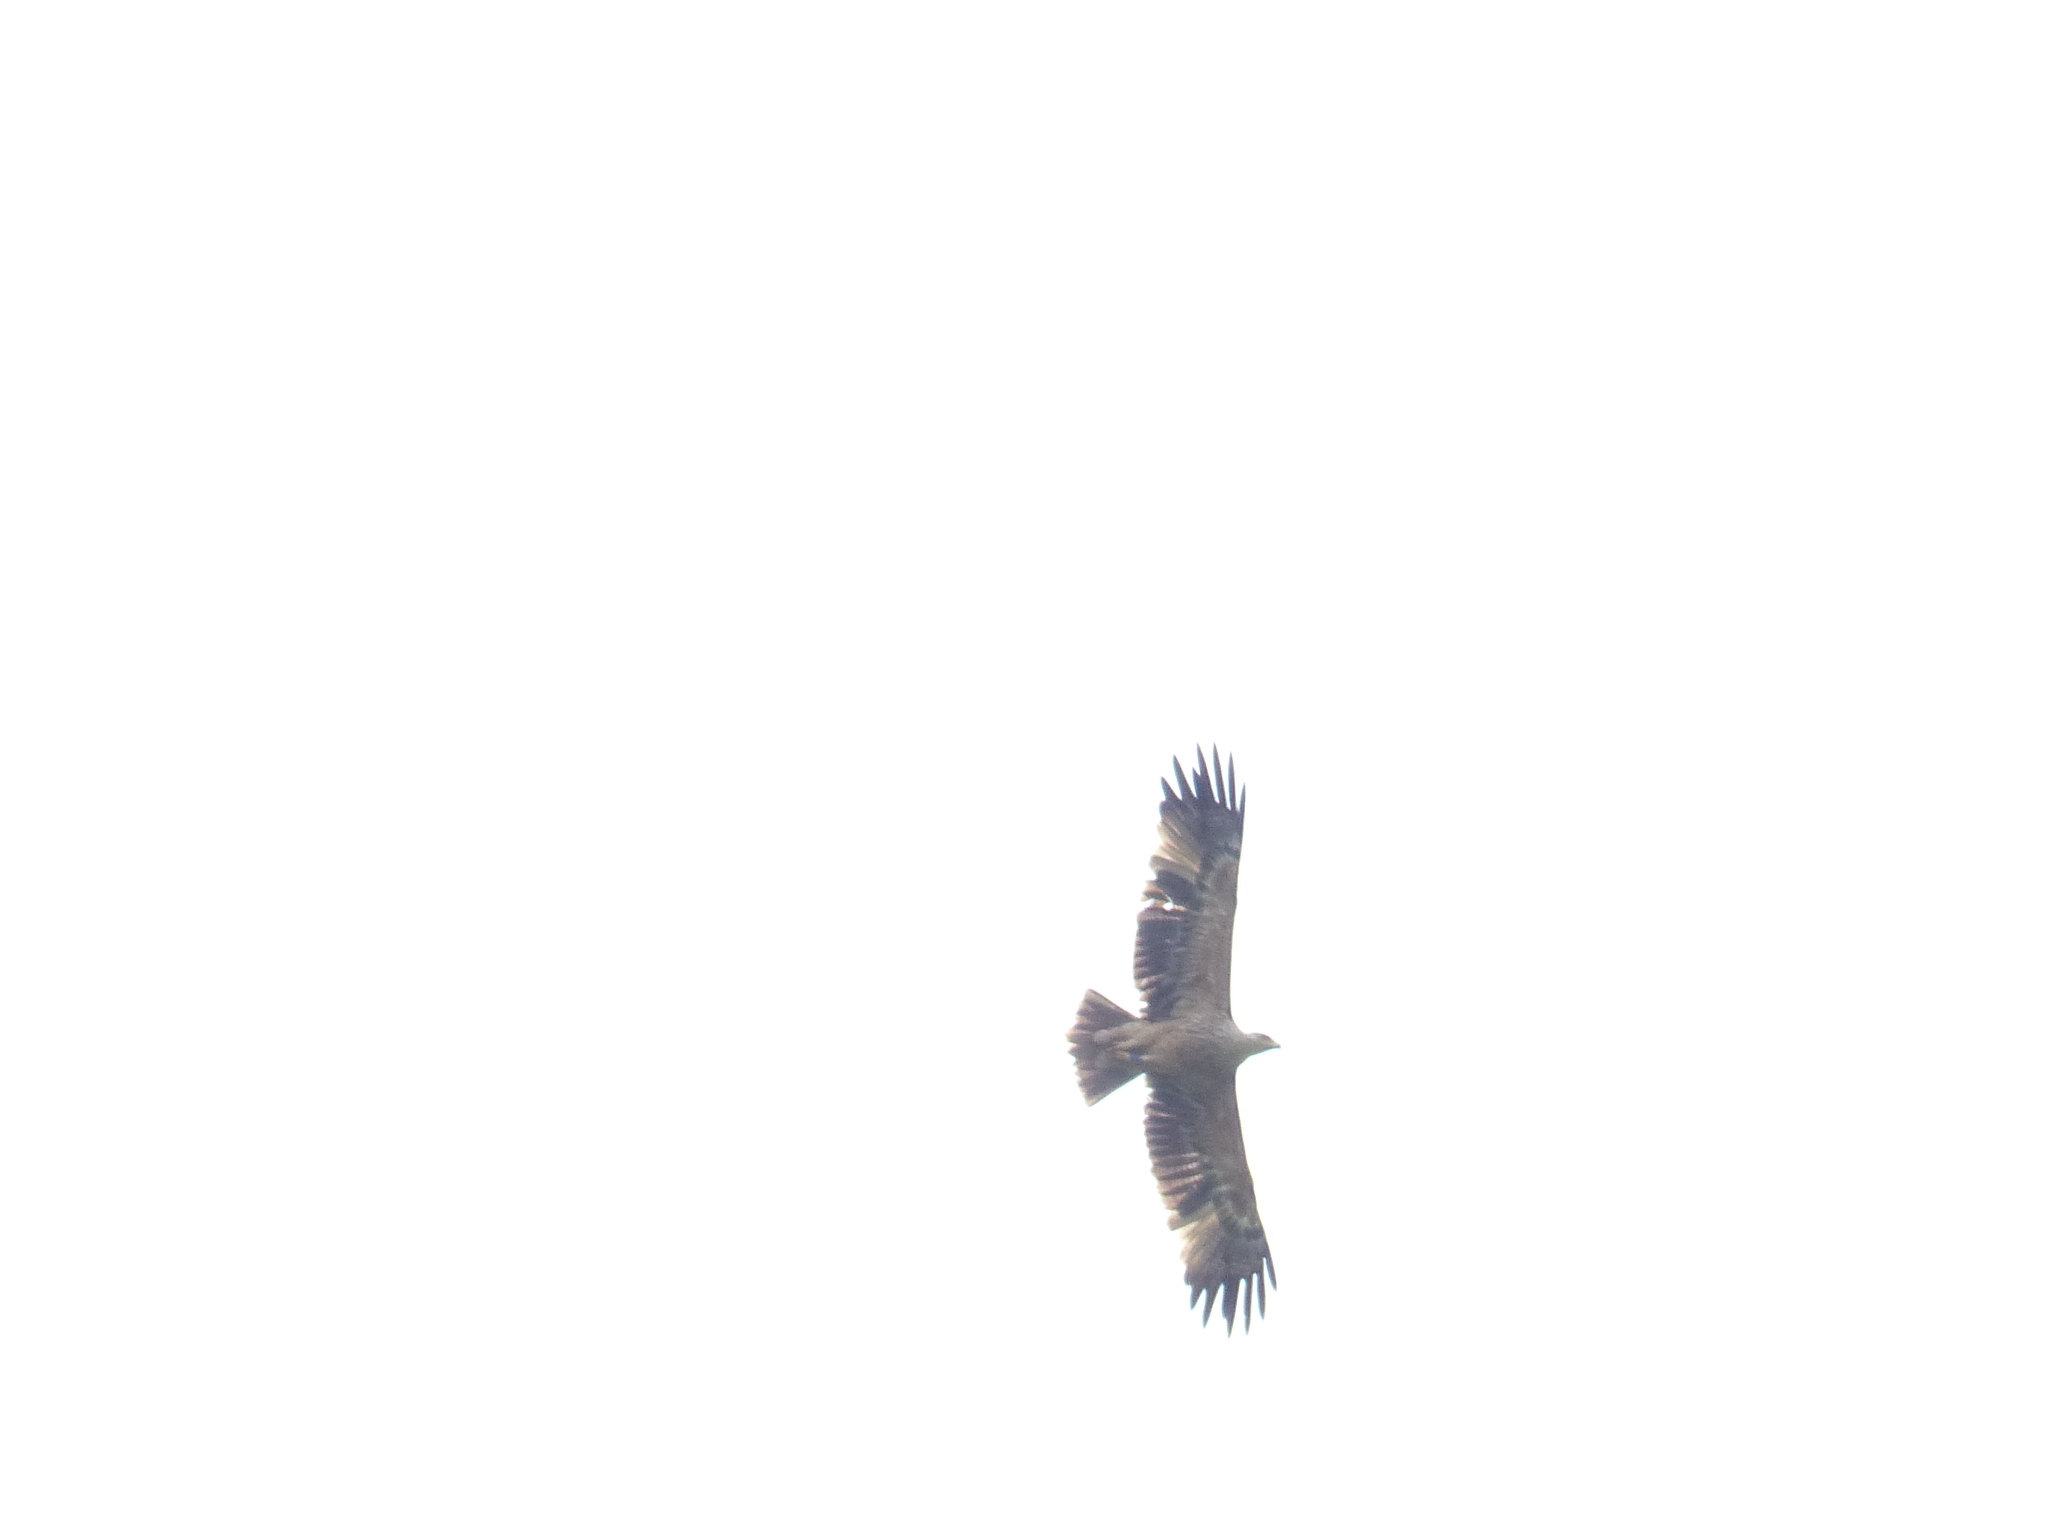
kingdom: Animalia
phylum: Chordata
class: Aves
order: Accipitriformes
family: Accipitridae
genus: Aquila
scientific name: Aquila heliaca
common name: Eastern imperial eagle
